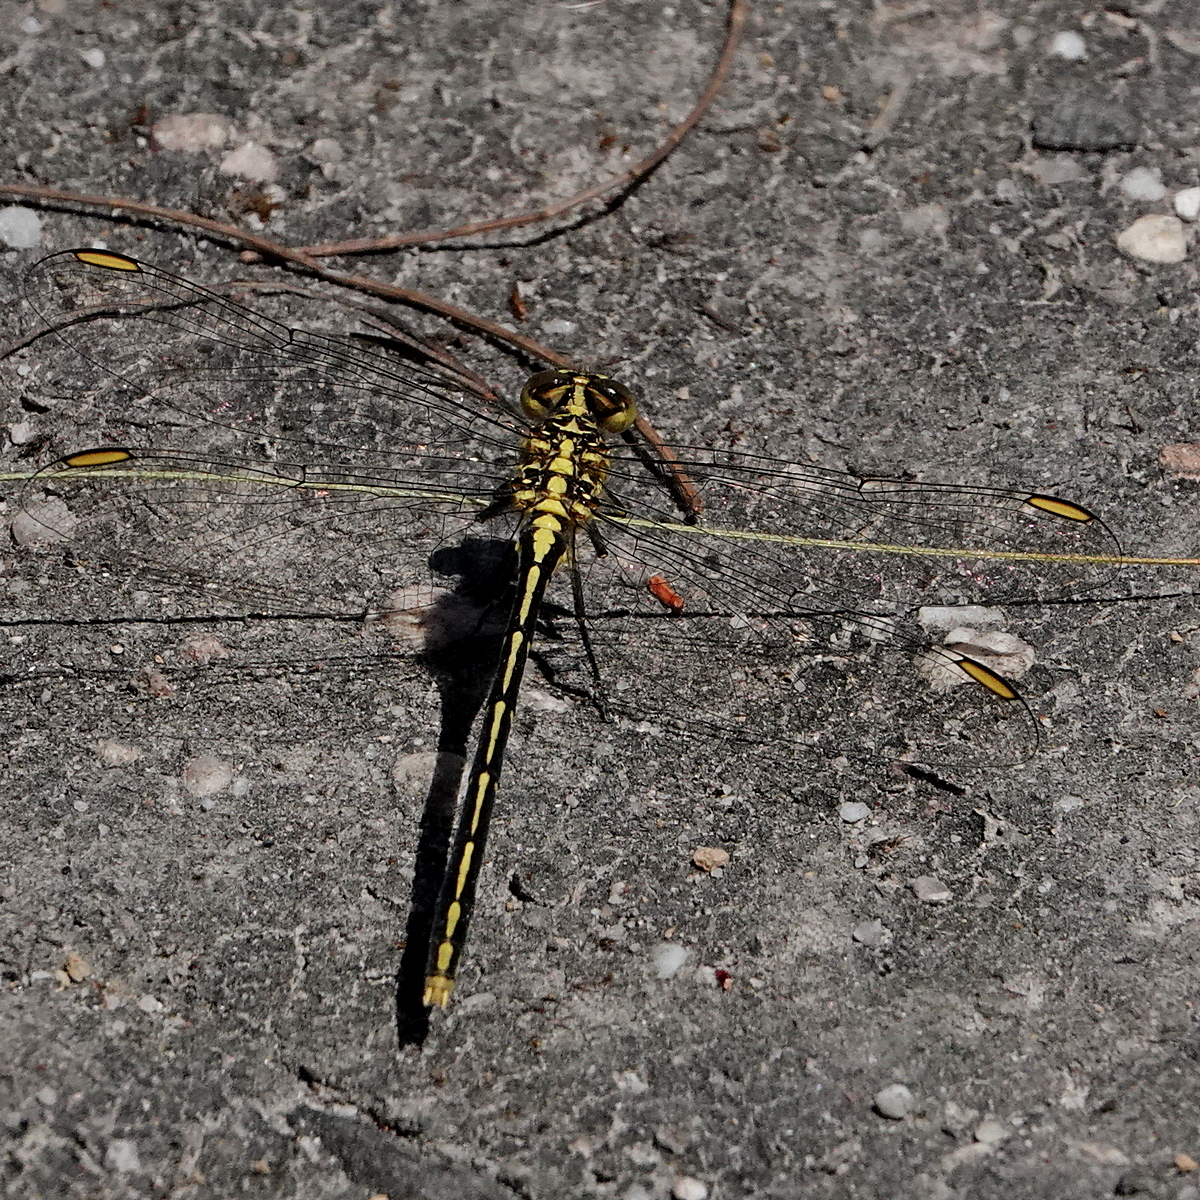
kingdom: Animalia
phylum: Arthropoda
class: Insecta
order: Odonata
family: Gomphidae
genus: Austrogomphus
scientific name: Austrogomphus guerini
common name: Yellow-striped hunter
